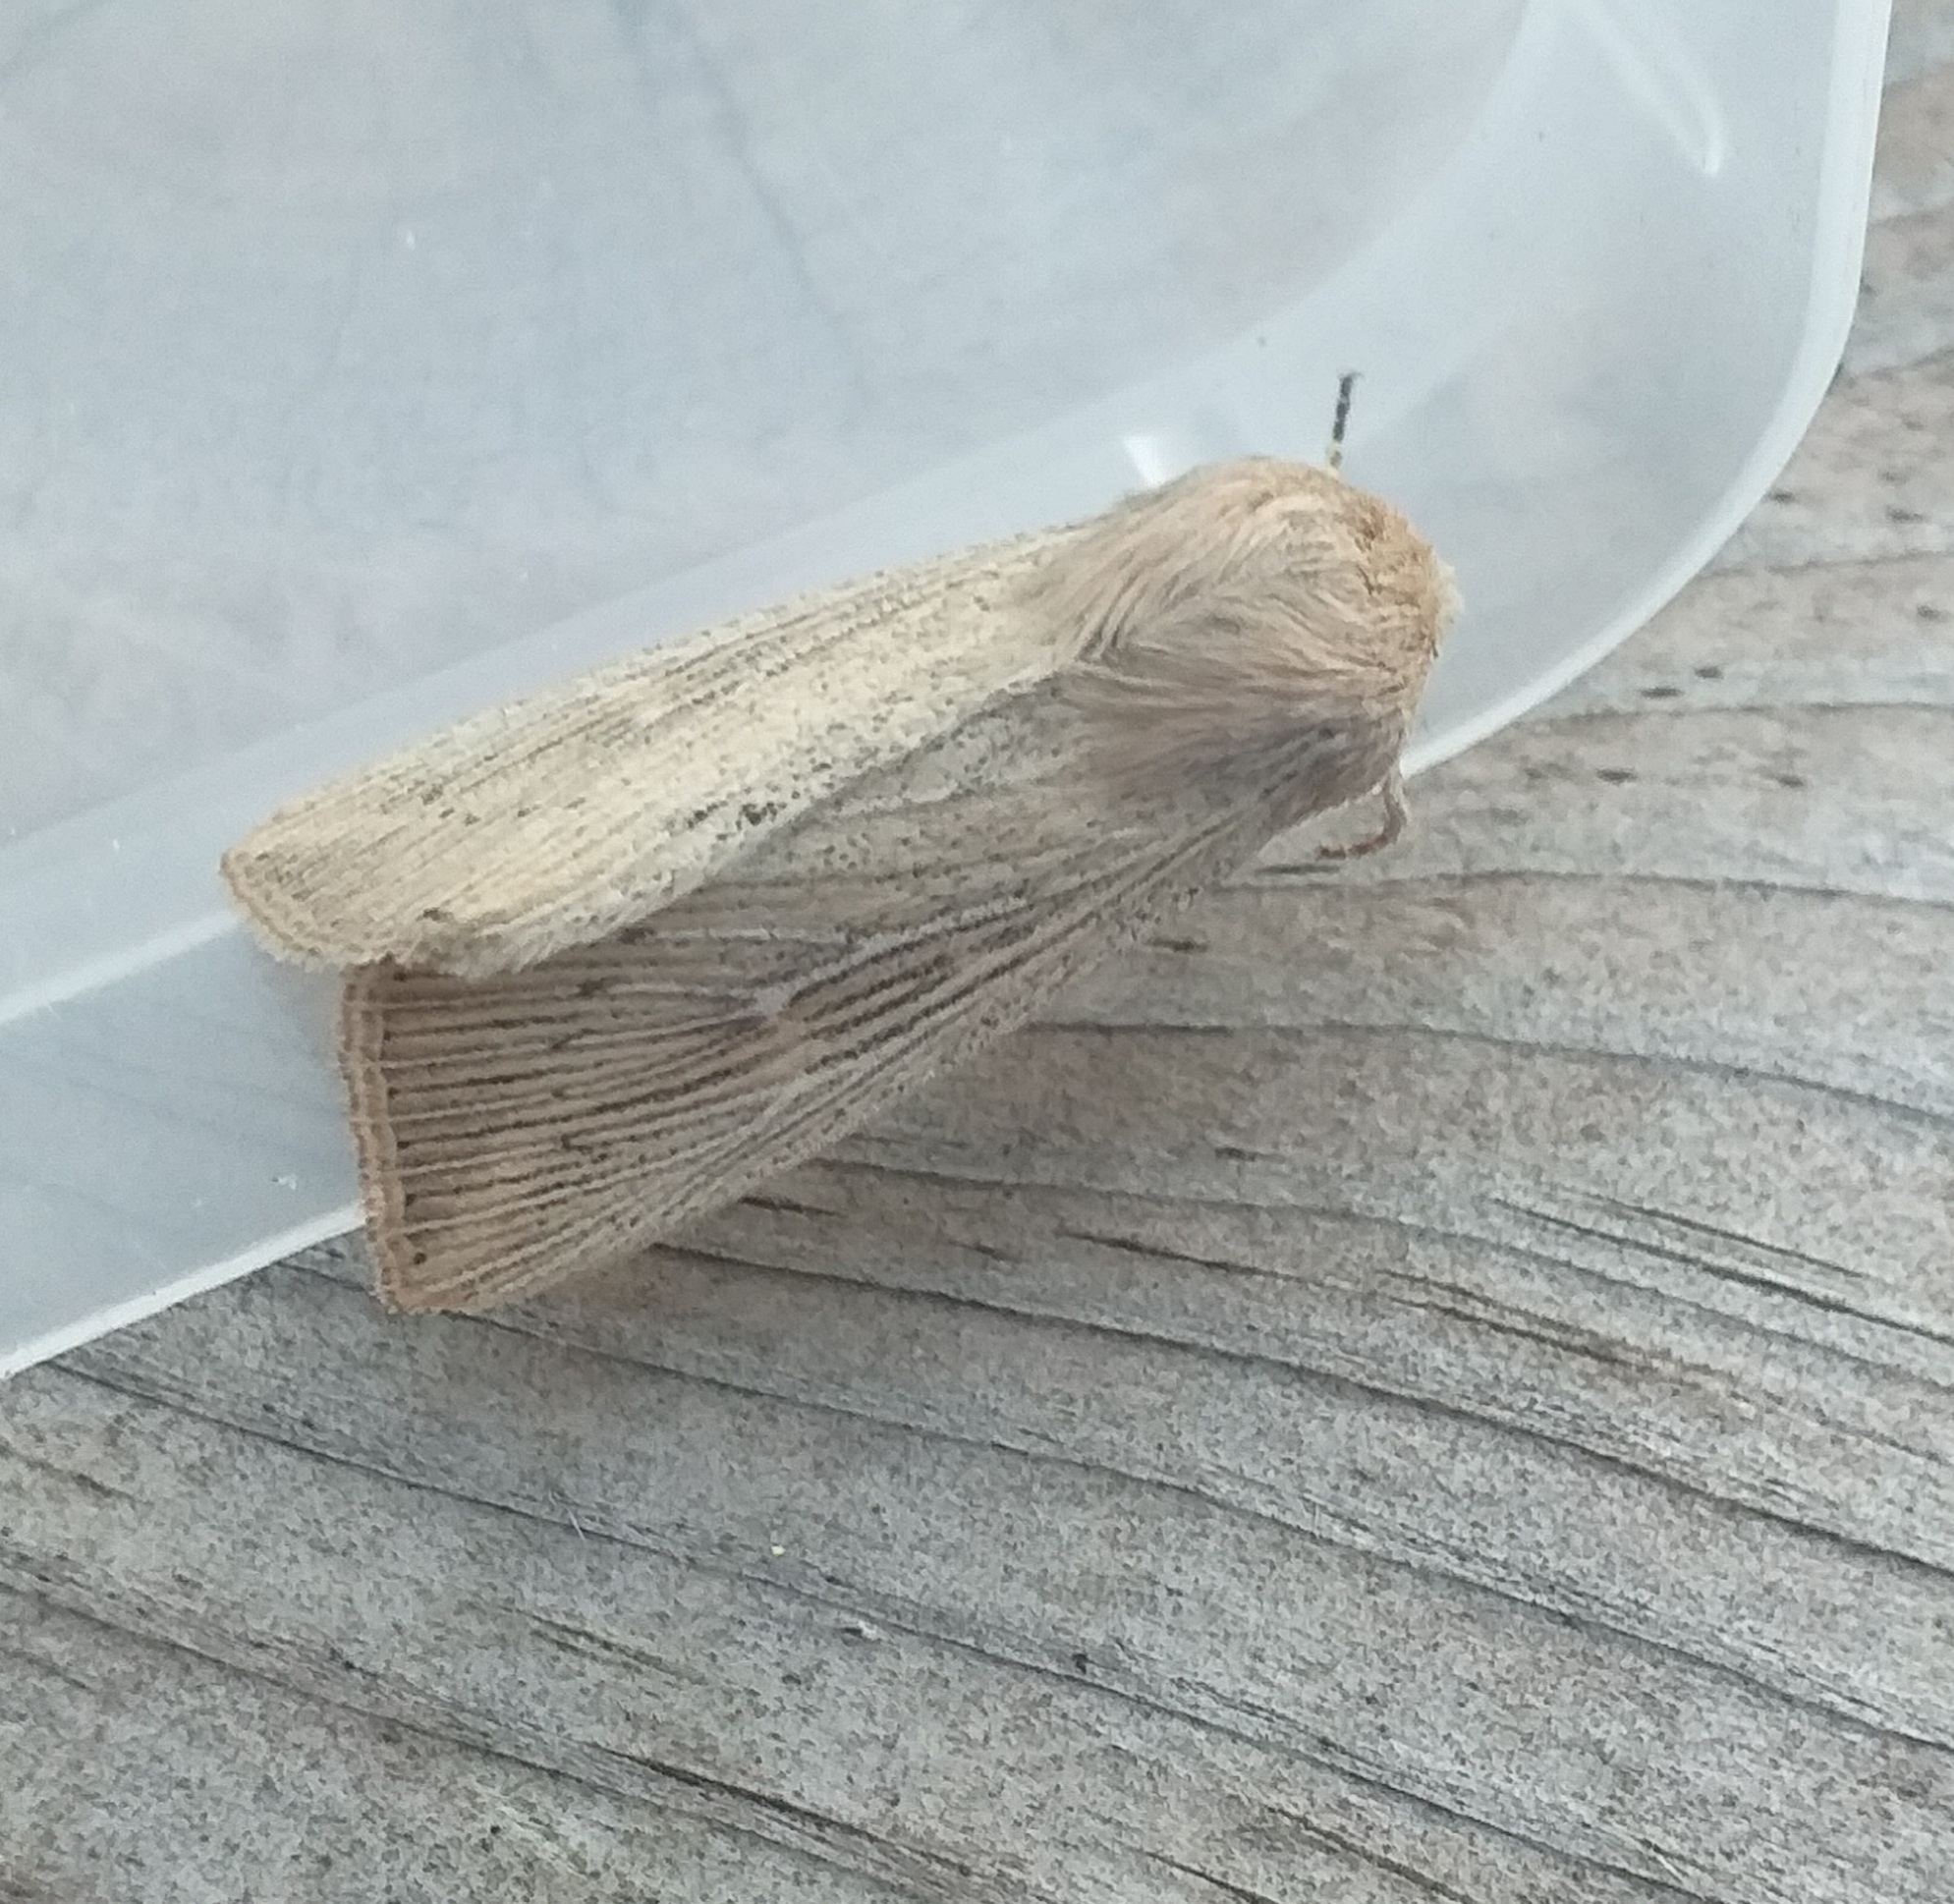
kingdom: Animalia
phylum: Arthropoda
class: Insecta
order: Lepidoptera
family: Noctuidae
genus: Leucania
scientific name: Leucania obsoleta
